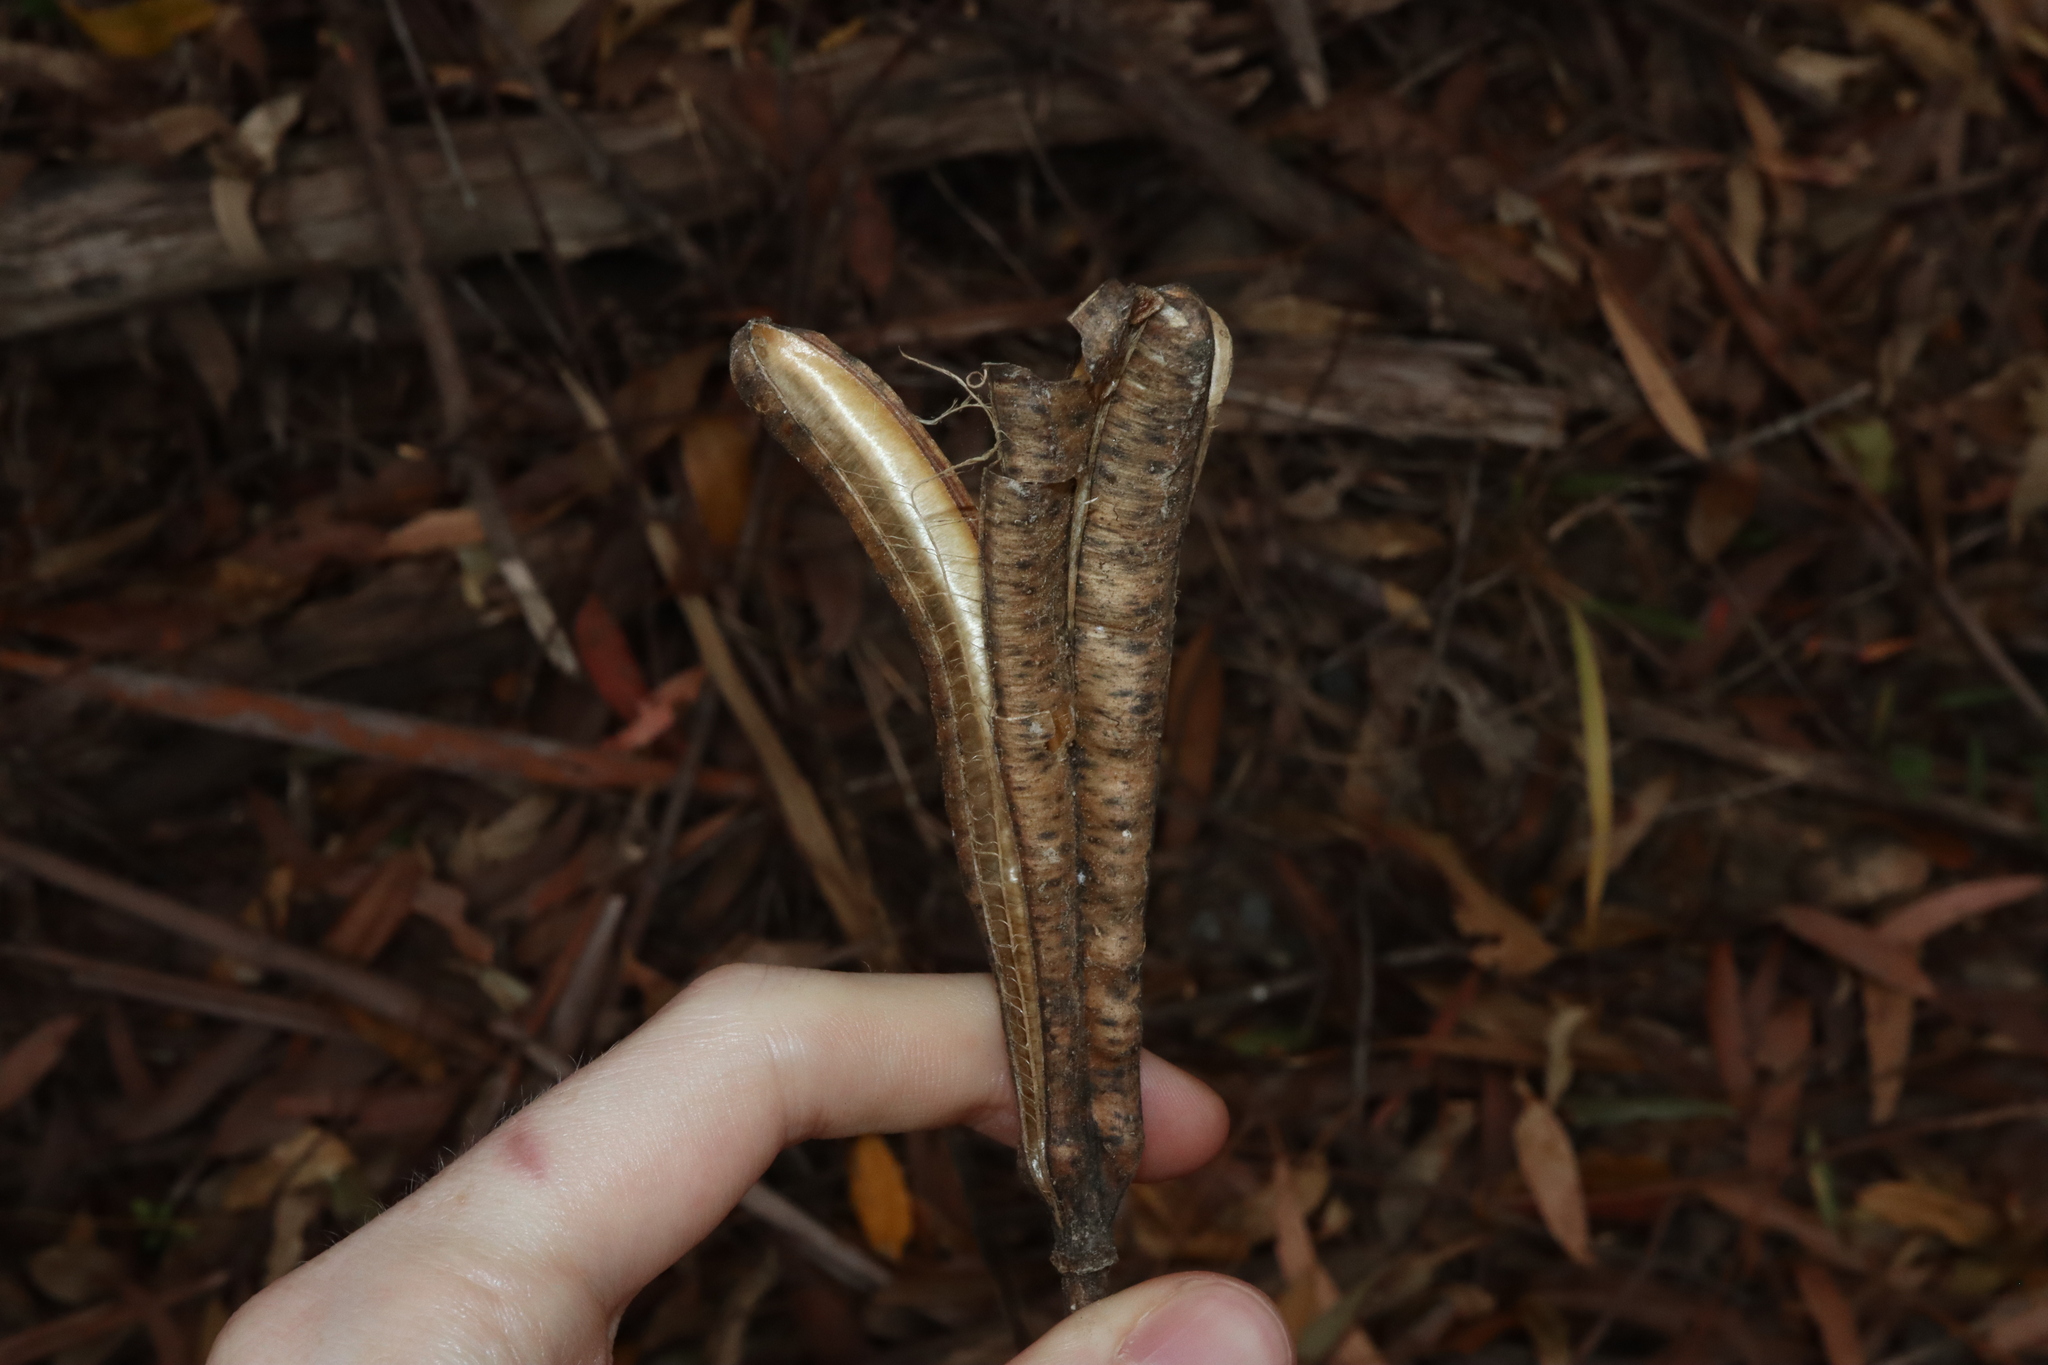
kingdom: Plantae
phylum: Tracheophyta
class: Liliopsida
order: Liliales
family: Liliaceae
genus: Lilium
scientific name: Lilium formosanum
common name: Formosa lily
